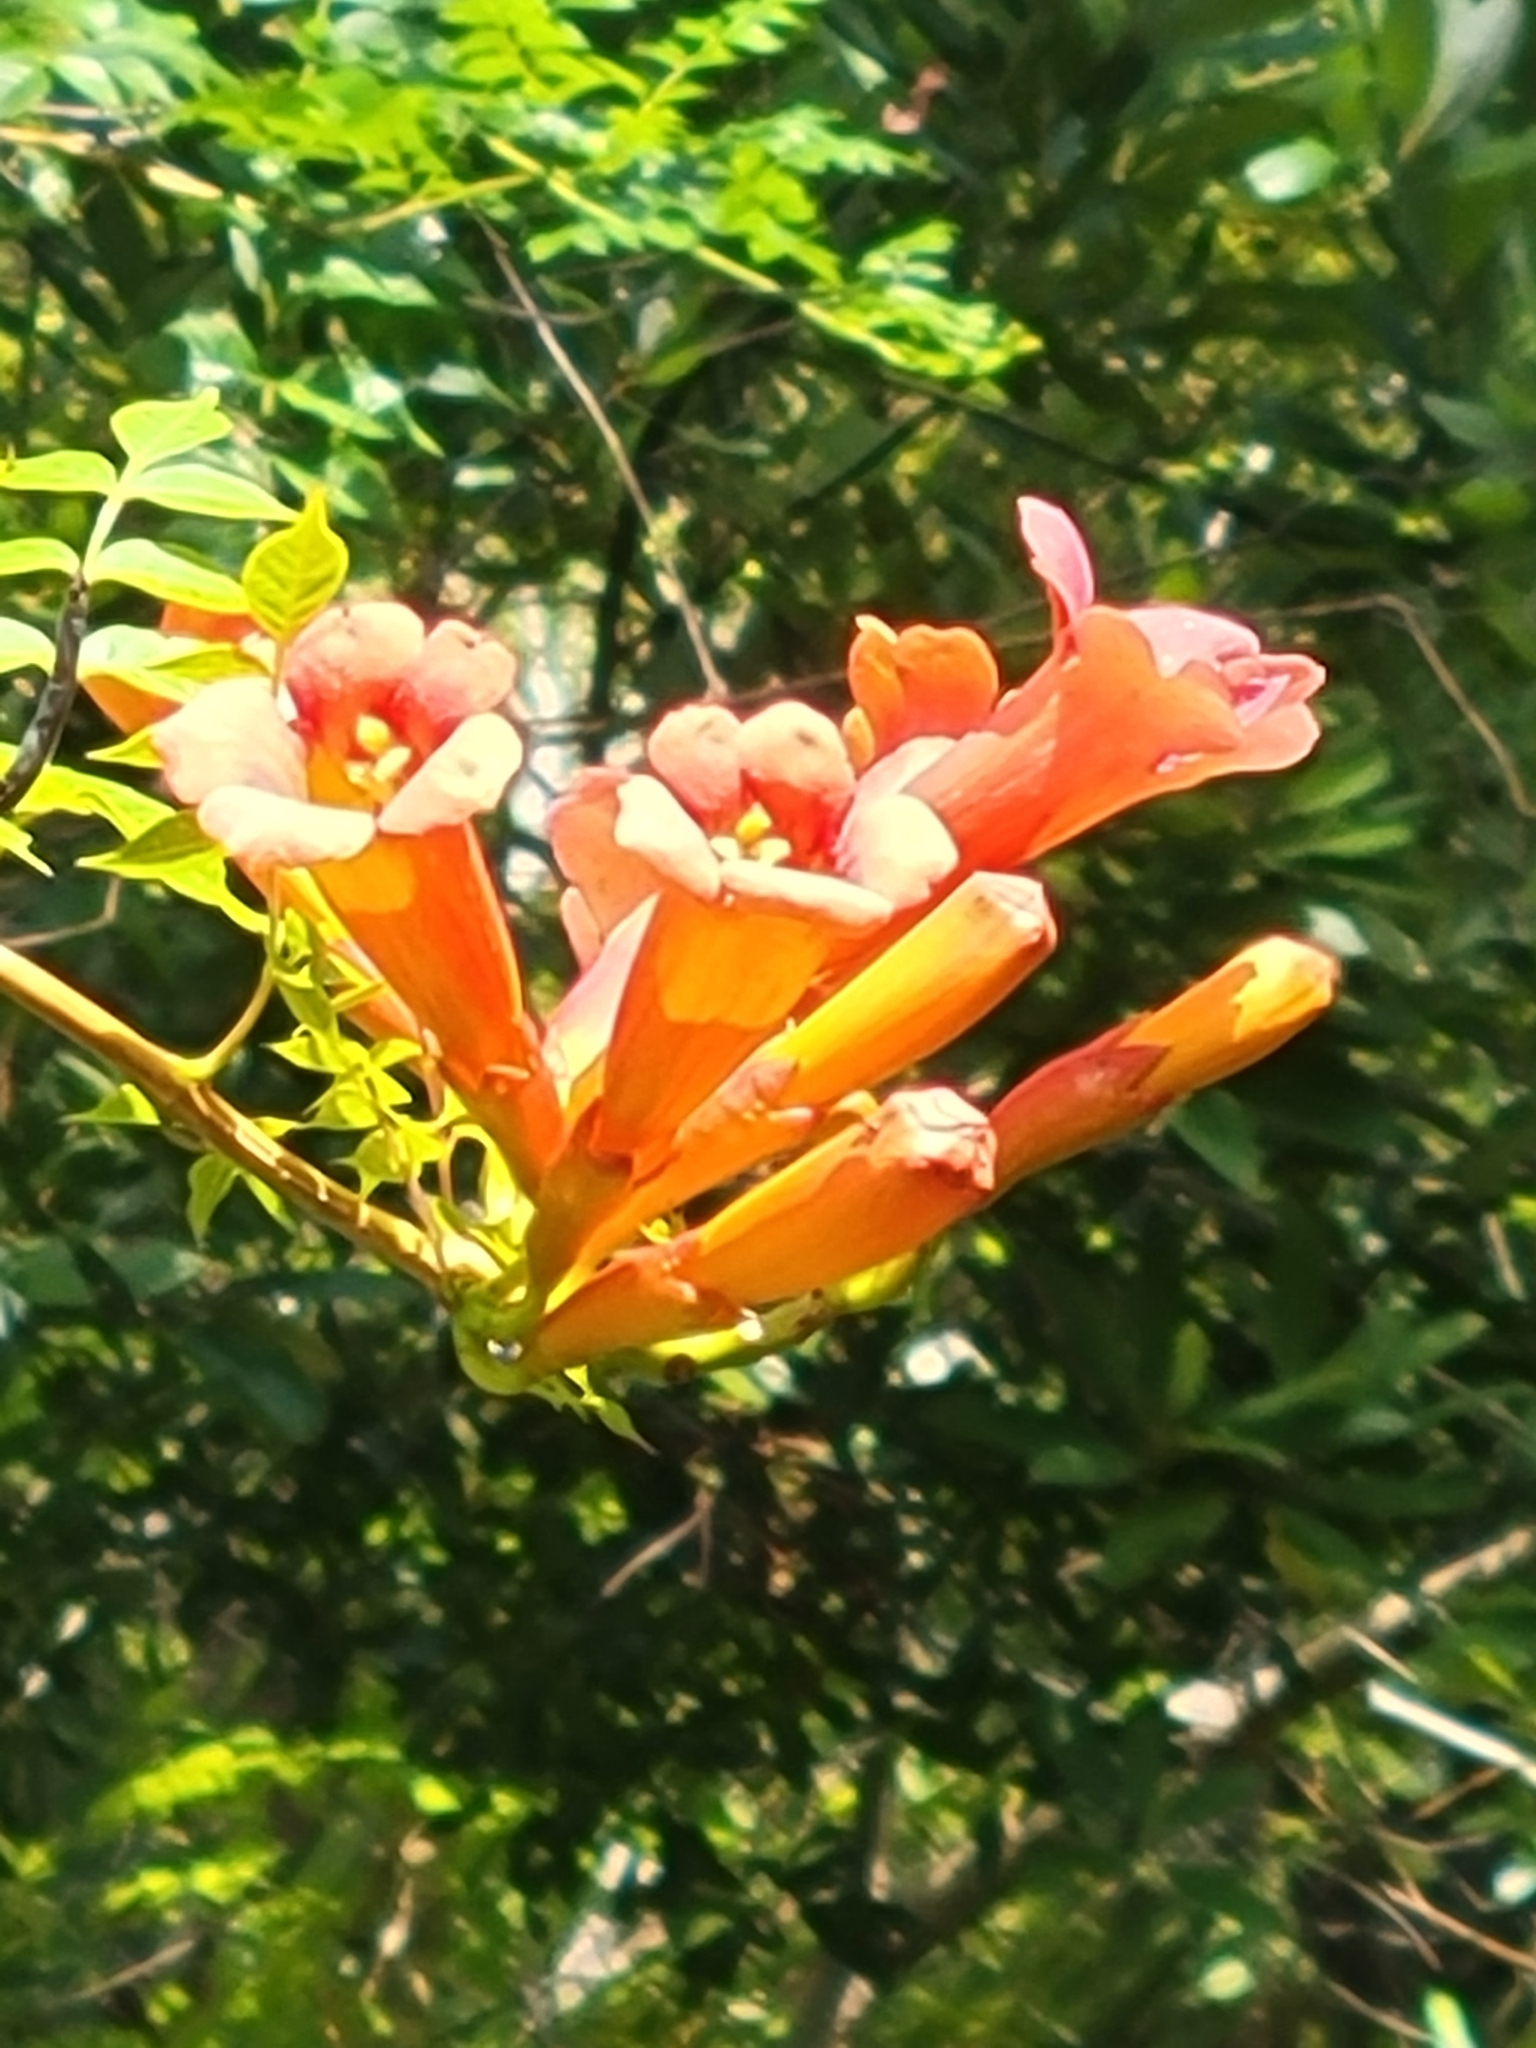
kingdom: Plantae
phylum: Tracheophyta
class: Magnoliopsida
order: Lamiales
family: Bignoniaceae
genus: Campsis
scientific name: Campsis radicans
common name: Trumpet-creeper
